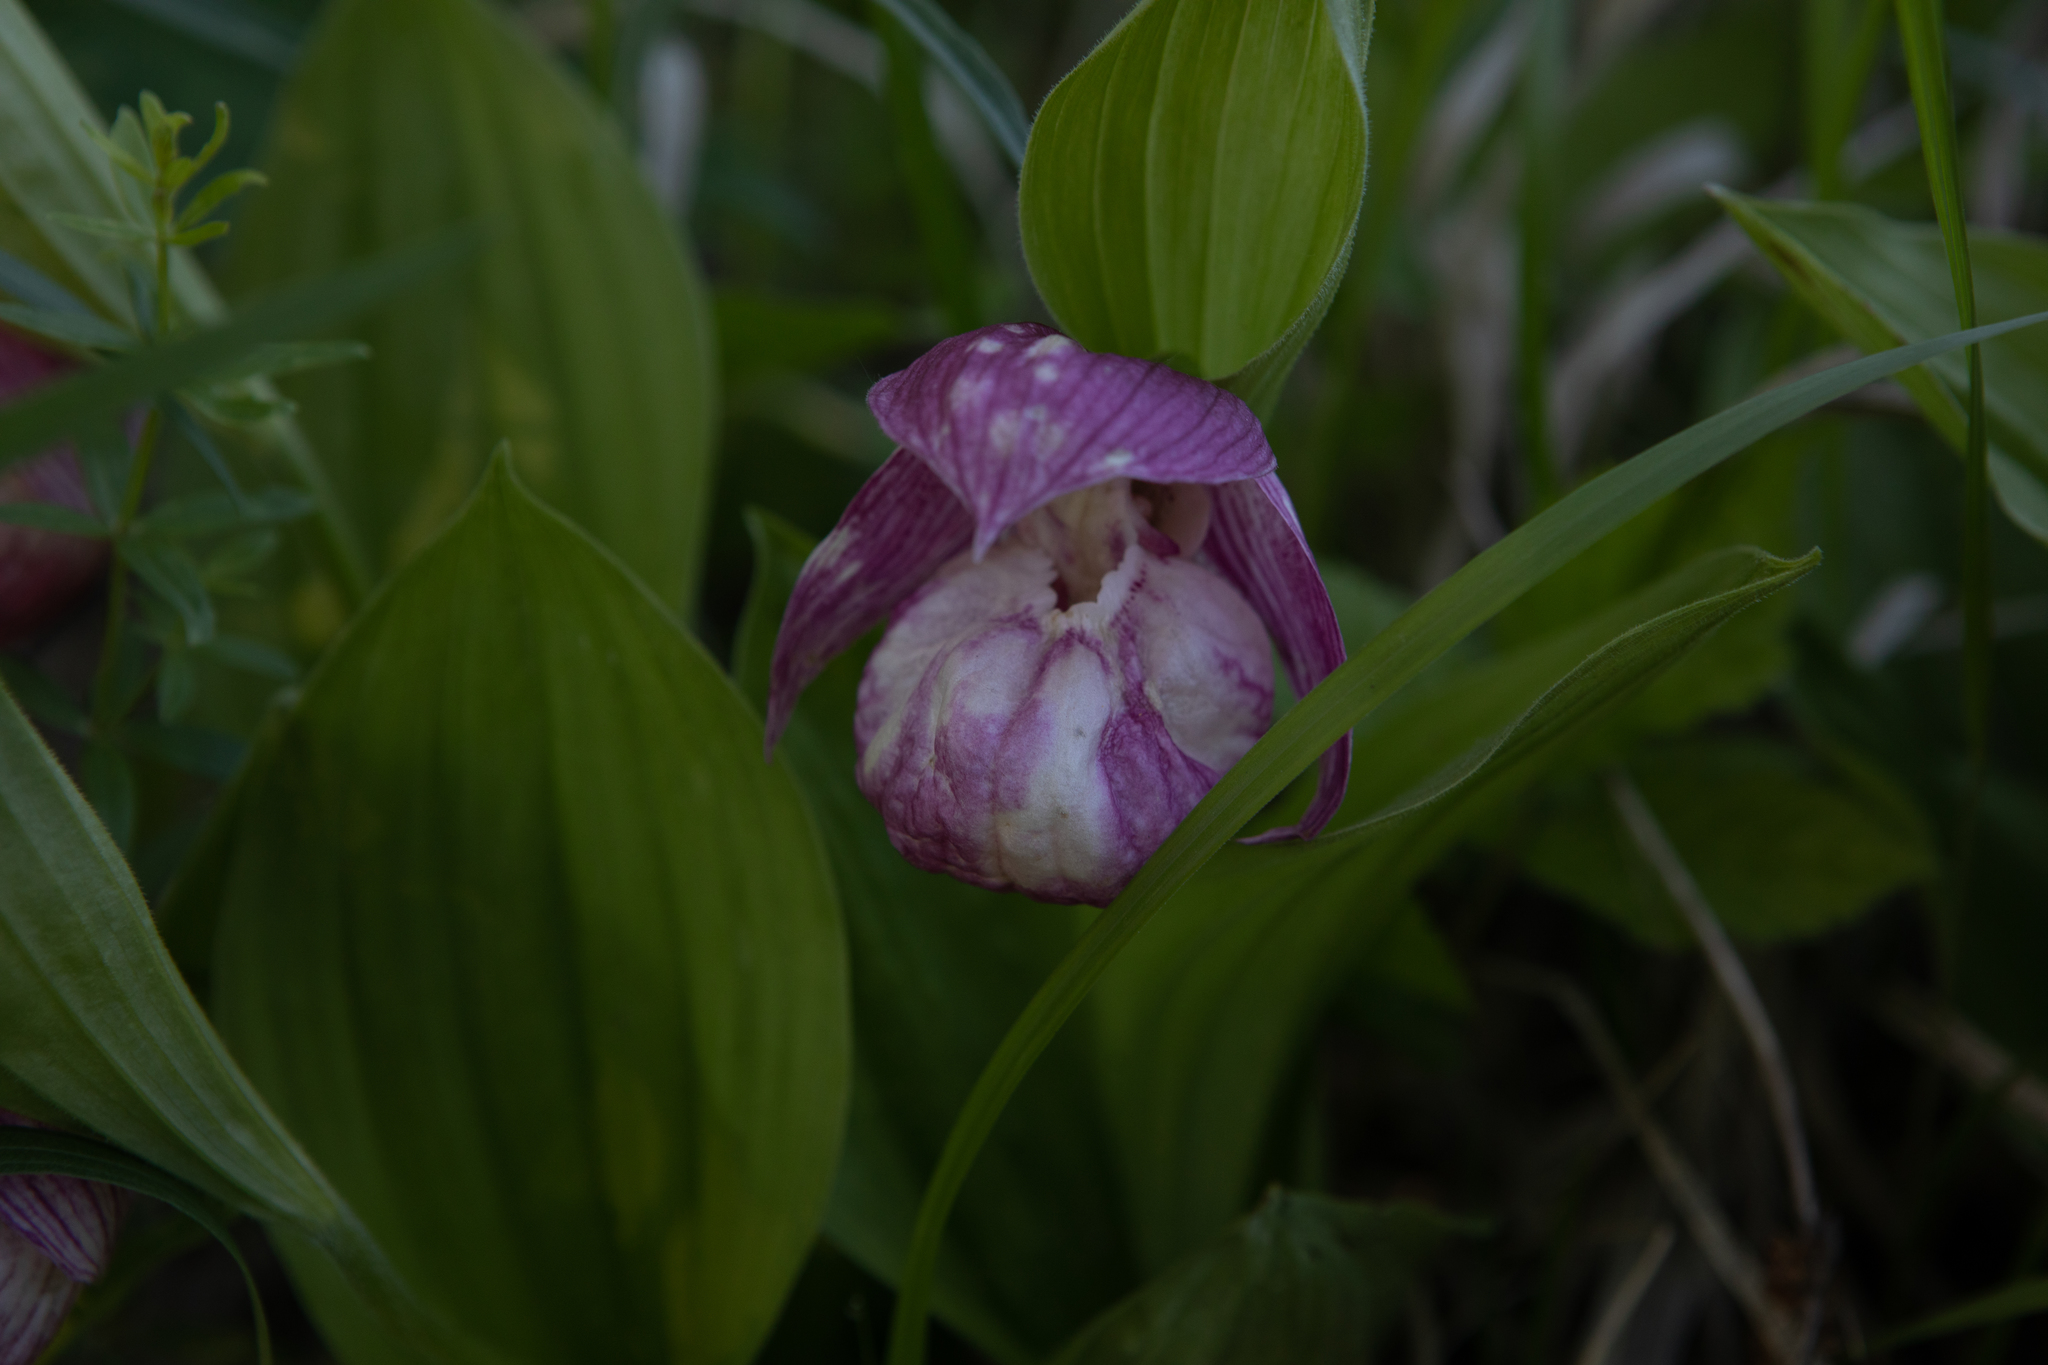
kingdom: Plantae
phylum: Tracheophyta
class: Liliopsida
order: Asparagales
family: Orchidaceae
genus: Cypripedium
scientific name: Cypripedium macranthos
